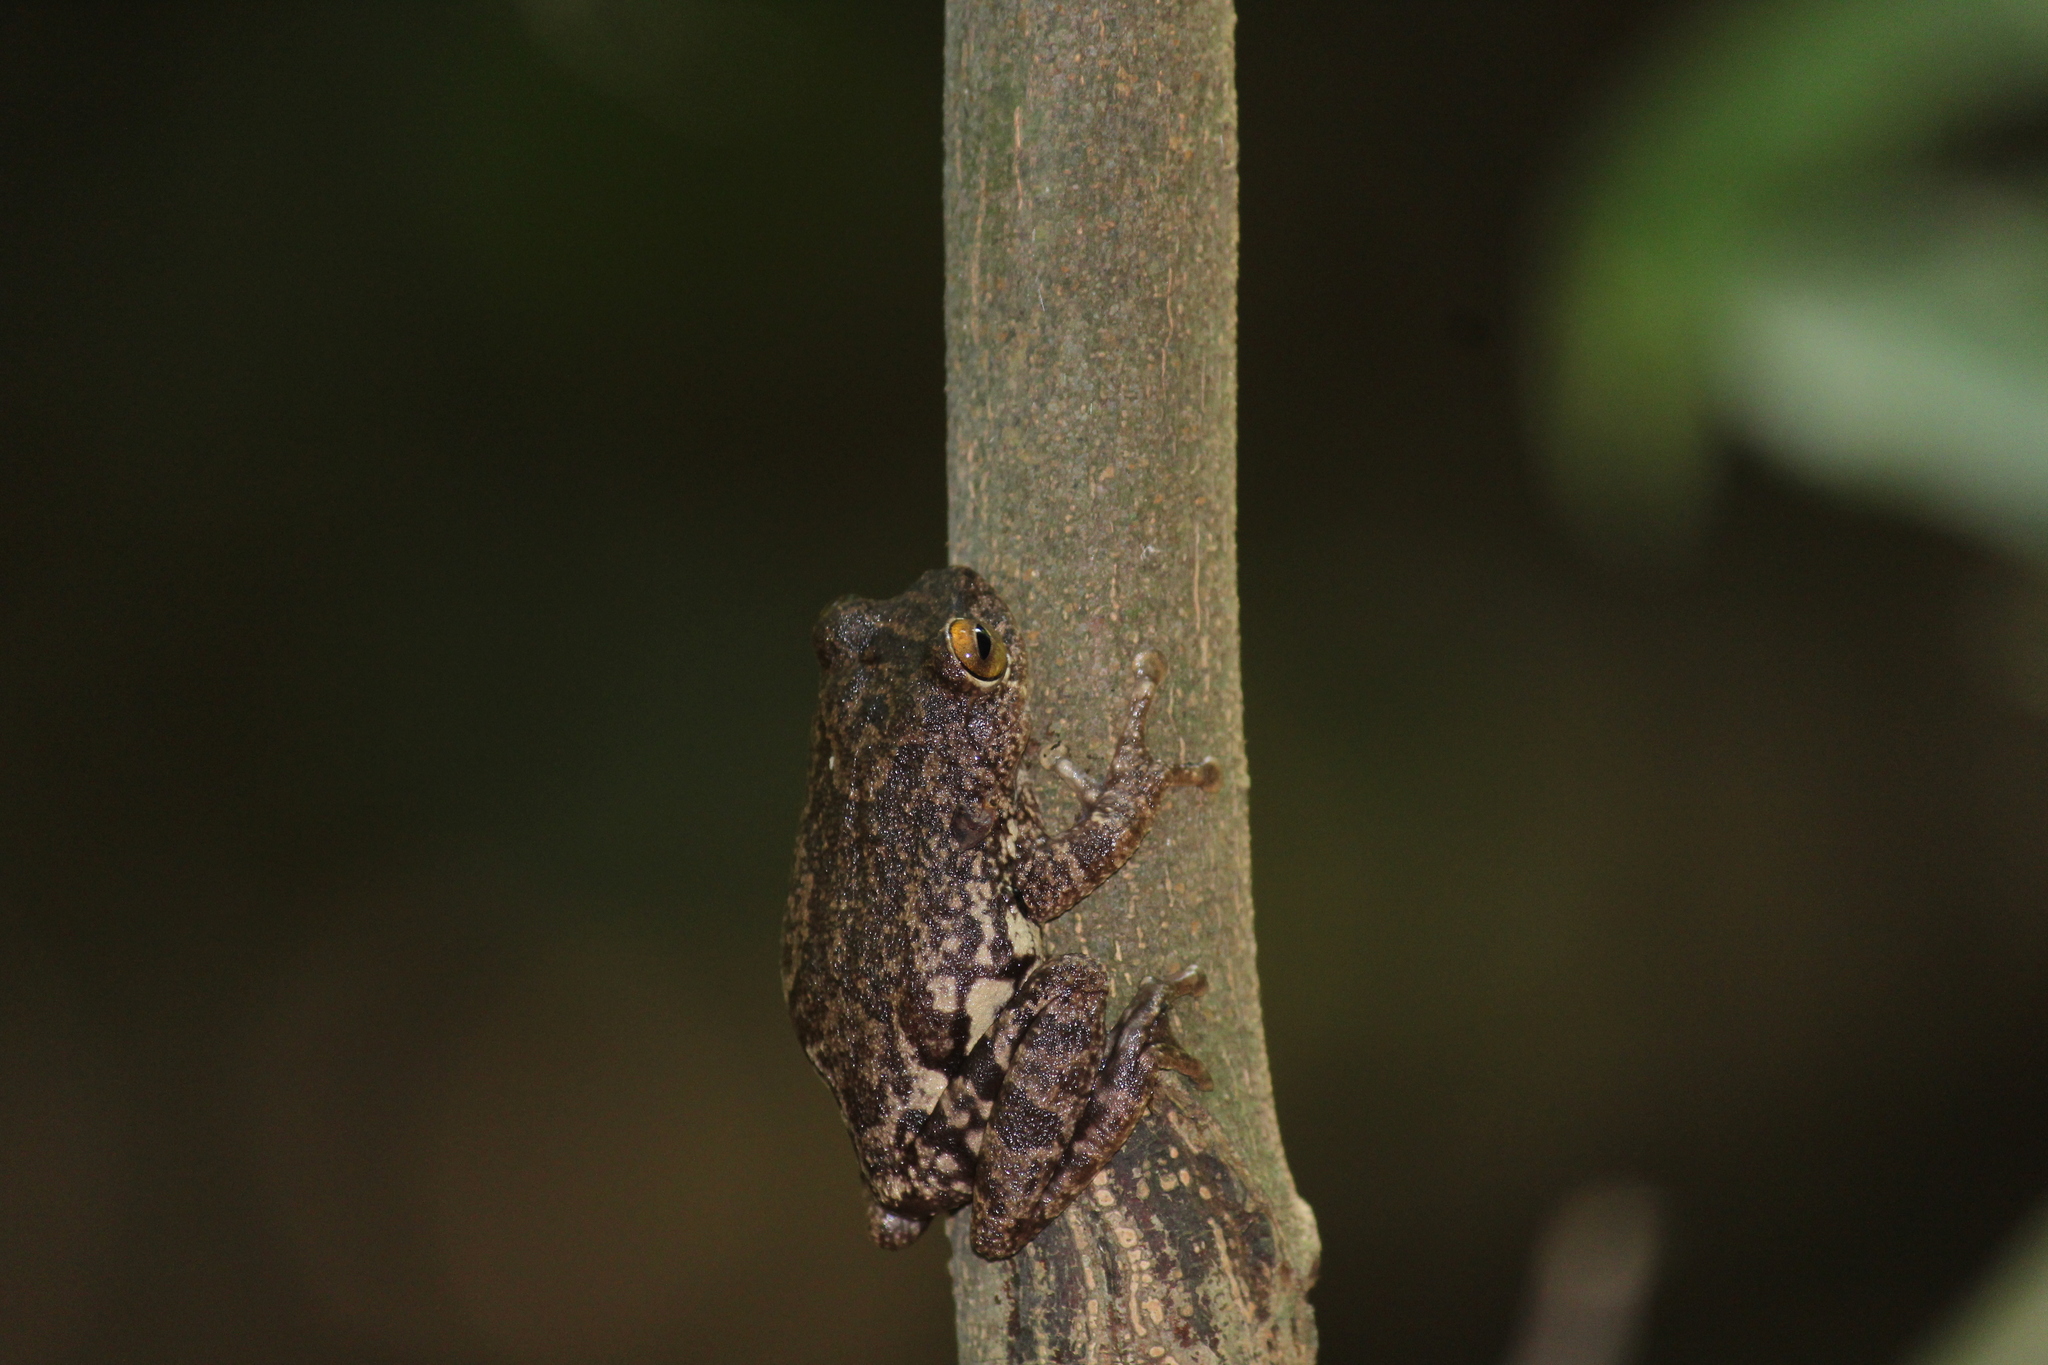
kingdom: Animalia
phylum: Chordata
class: Amphibia
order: Anura
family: Rhacophoridae
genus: Raorchestes
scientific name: Raorchestes ponmudi
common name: Large ponmudi bush frog
